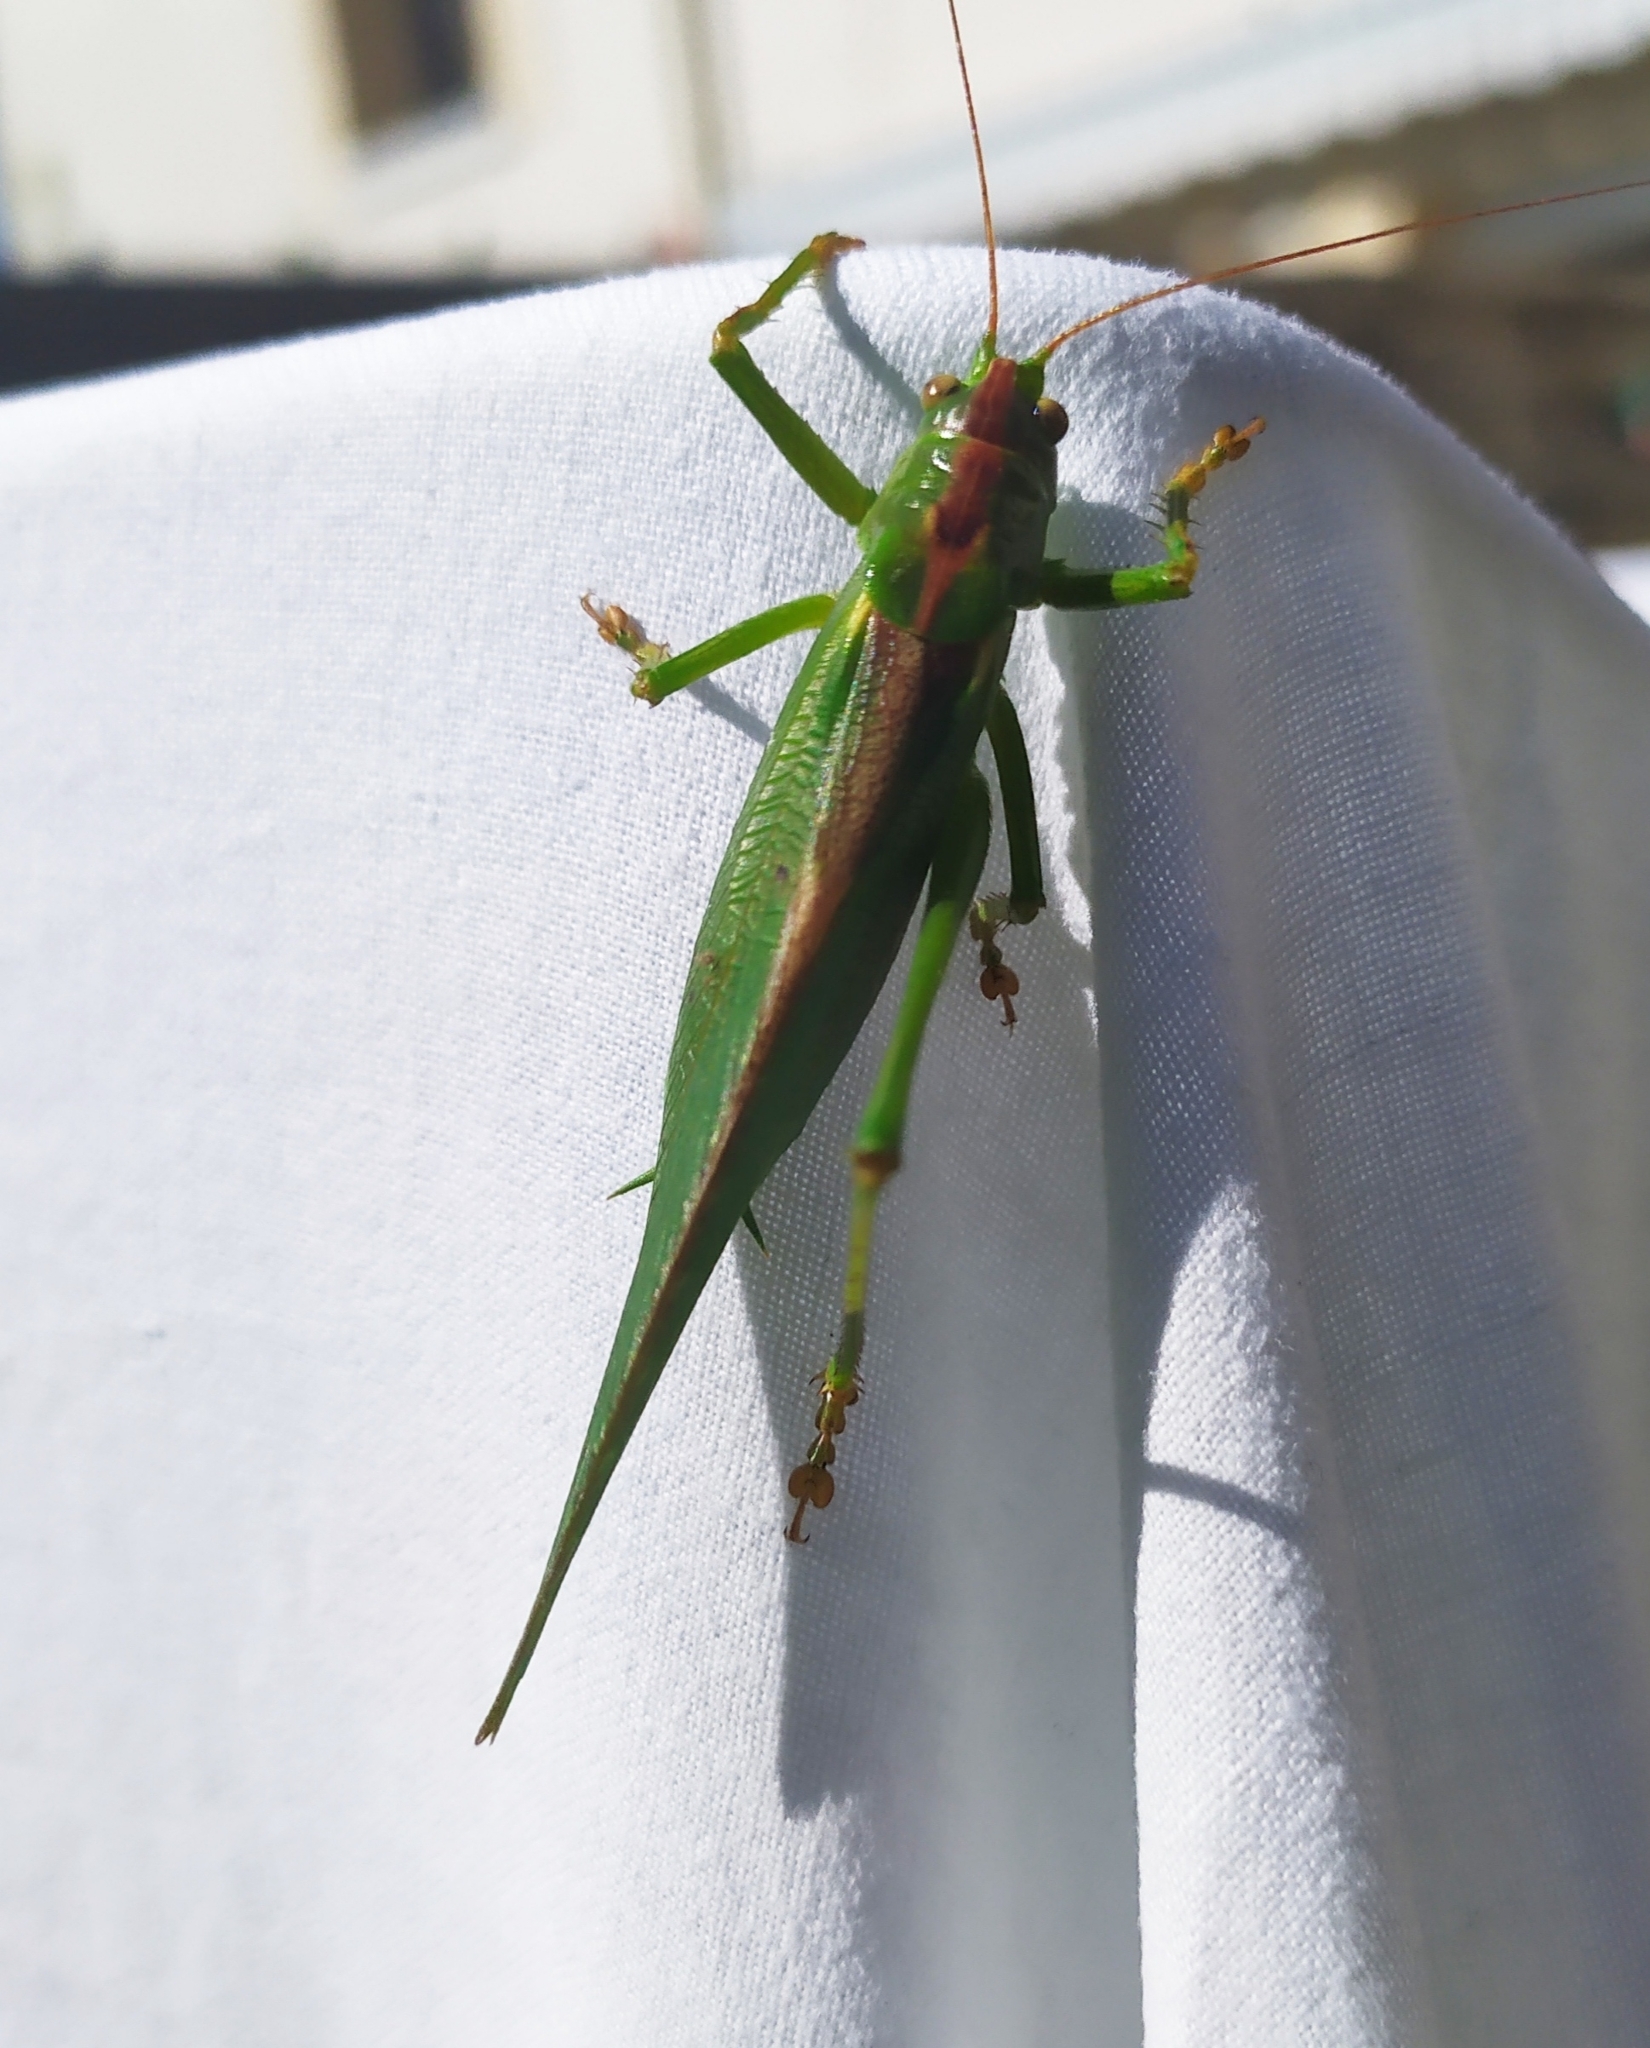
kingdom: Animalia
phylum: Arthropoda
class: Insecta
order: Orthoptera
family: Tettigoniidae
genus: Tettigonia
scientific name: Tettigonia viridissima
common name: Great green bush-cricket
